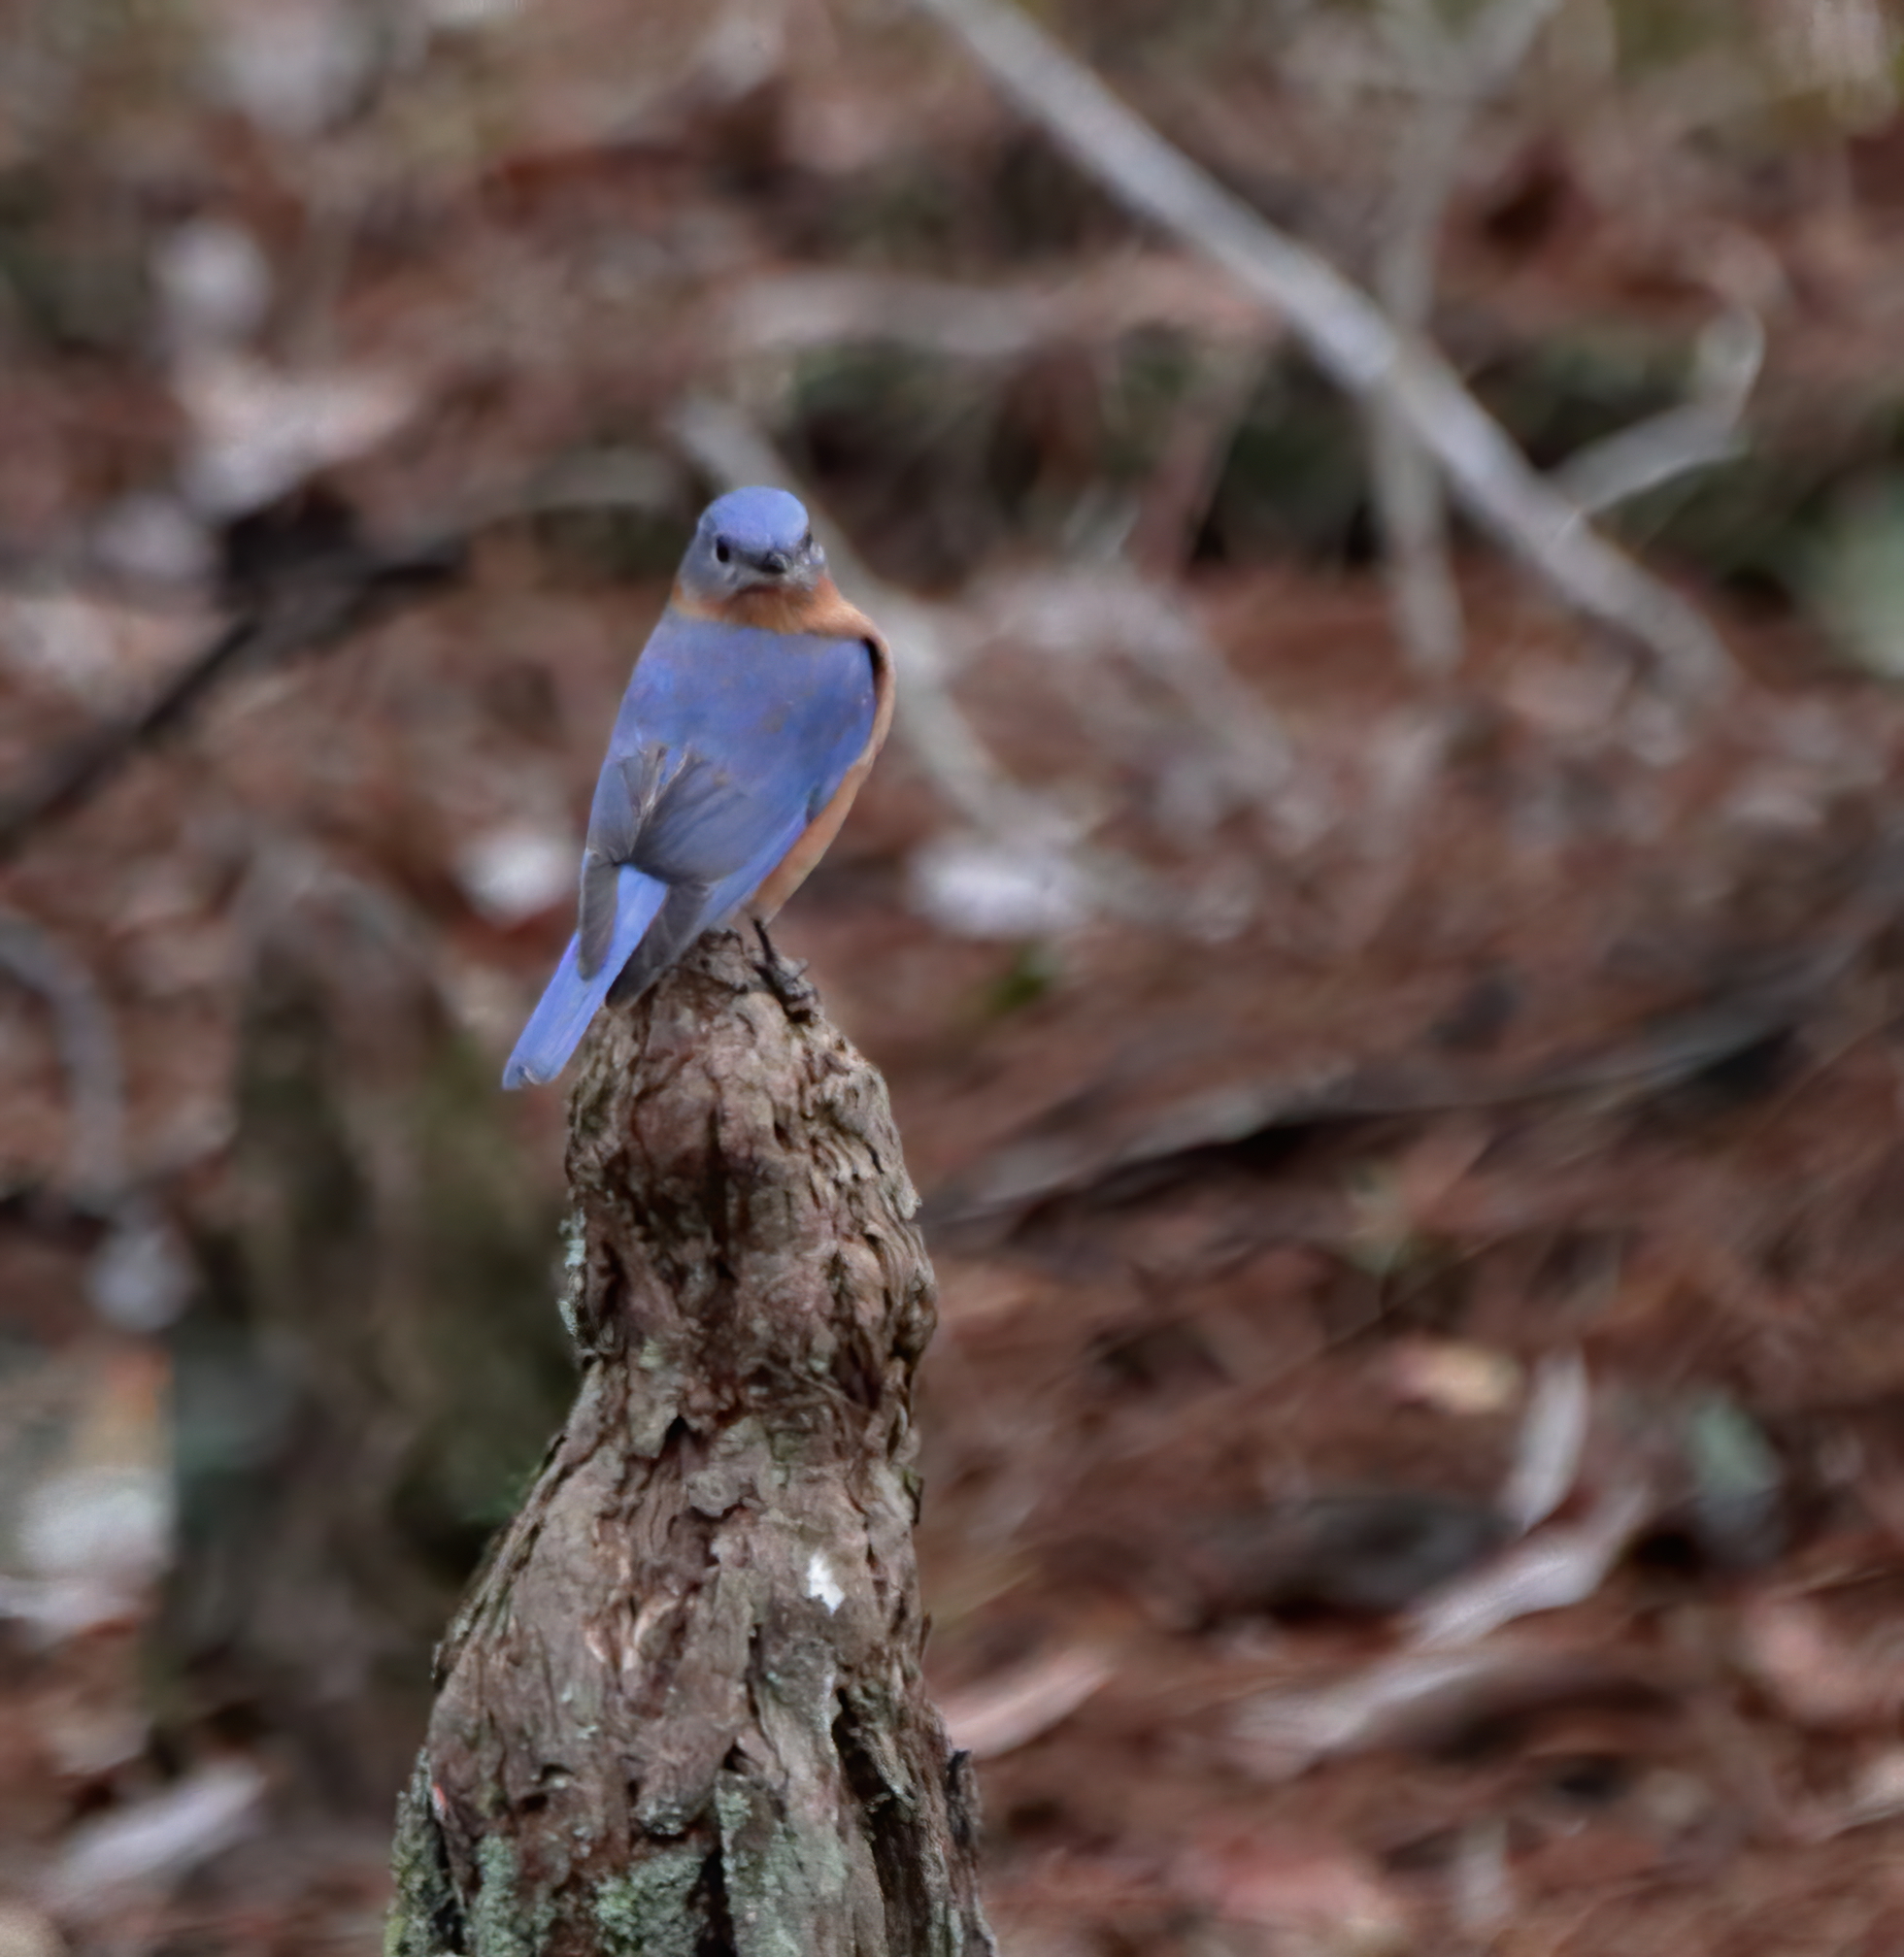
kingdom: Animalia
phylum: Chordata
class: Aves
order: Passeriformes
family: Turdidae
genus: Sialia
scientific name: Sialia sialis
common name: Eastern bluebird
